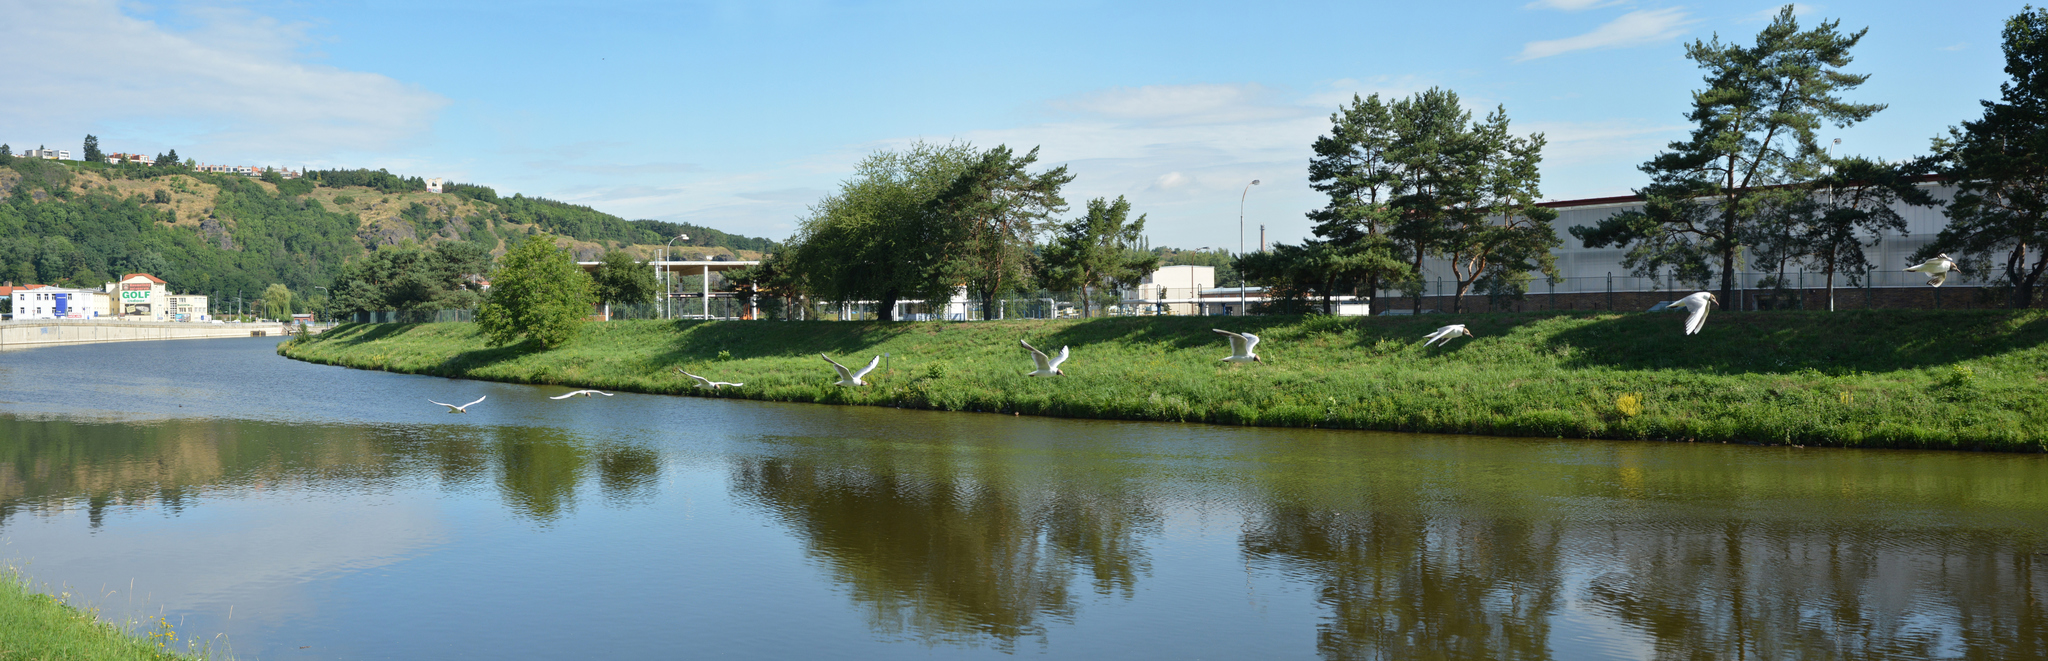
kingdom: Animalia
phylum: Chordata
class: Aves
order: Charadriiformes
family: Laridae
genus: Chroicocephalus
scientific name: Chroicocephalus ridibundus
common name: Black-headed gull
